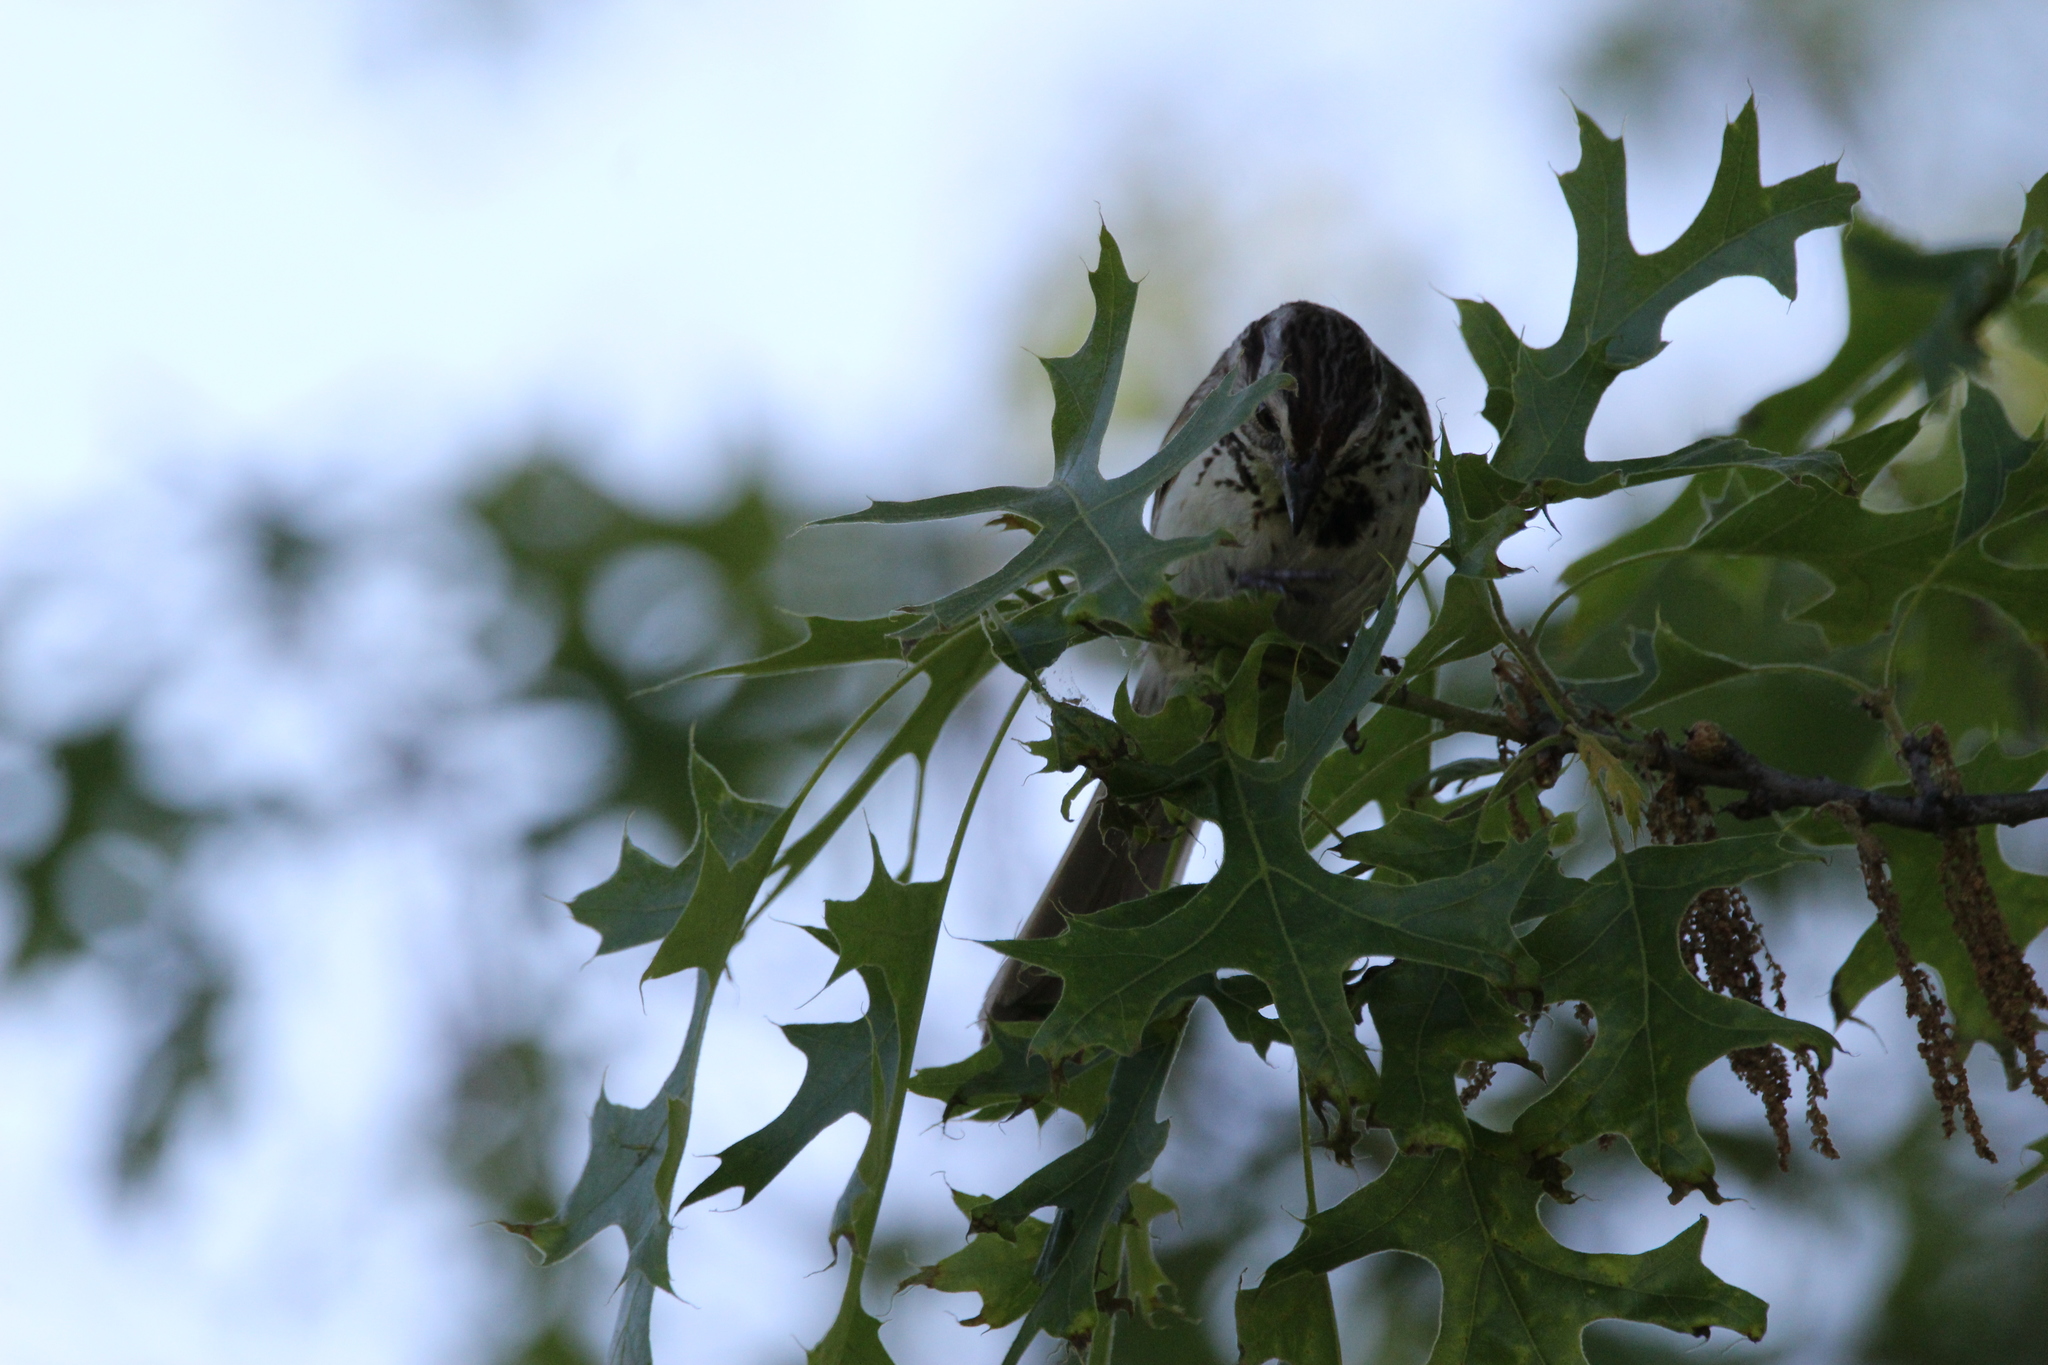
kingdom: Animalia
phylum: Chordata
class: Aves
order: Passeriformes
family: Passerellidae
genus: Melospiza
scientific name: Melospiza melodia
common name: Song sparrow
